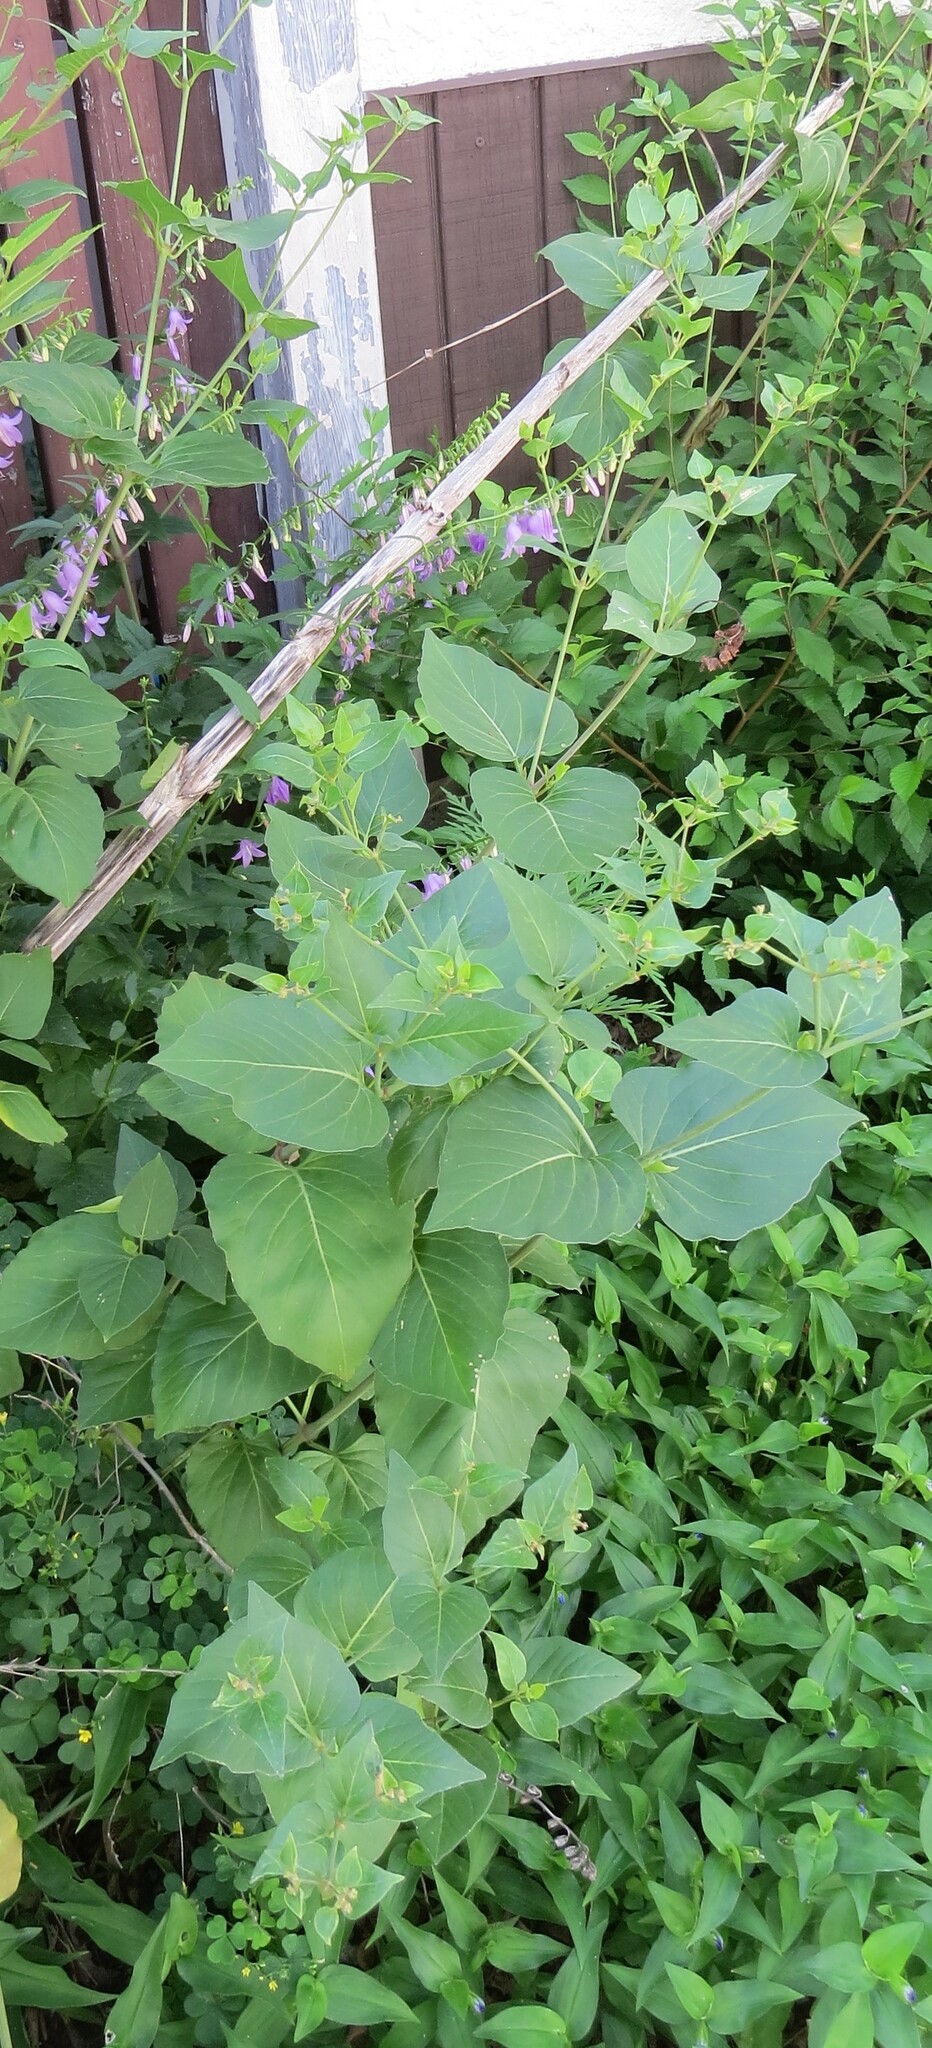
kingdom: Plantae
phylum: Tracheophyta
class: Magnoliopsida
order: Caryophyllales
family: Nyctaginaceae
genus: Mirabilis
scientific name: Mirabilis nyctaginea
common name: Umbrella wort
